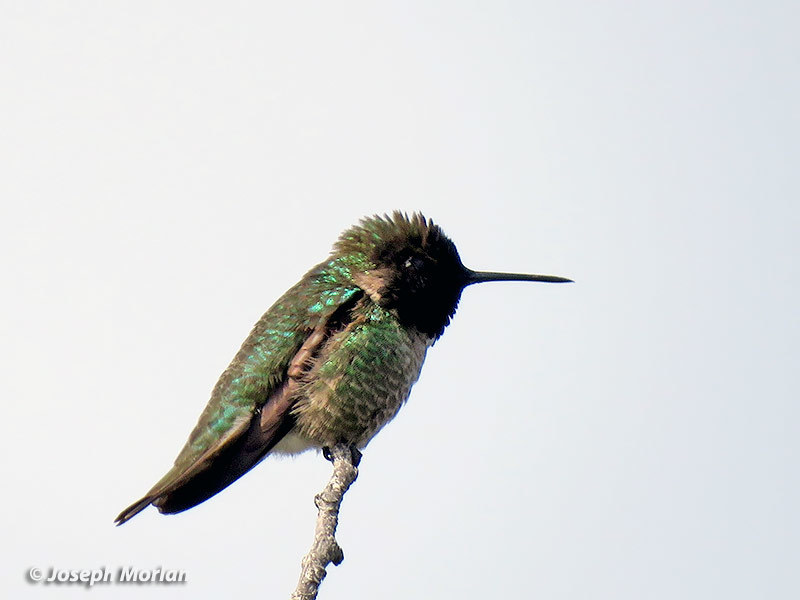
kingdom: Animalia
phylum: Chordata
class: Aves
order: Apodiformes
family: Trochilidae
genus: Calypte
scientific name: Calypte anna
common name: Anna's hummingbird
